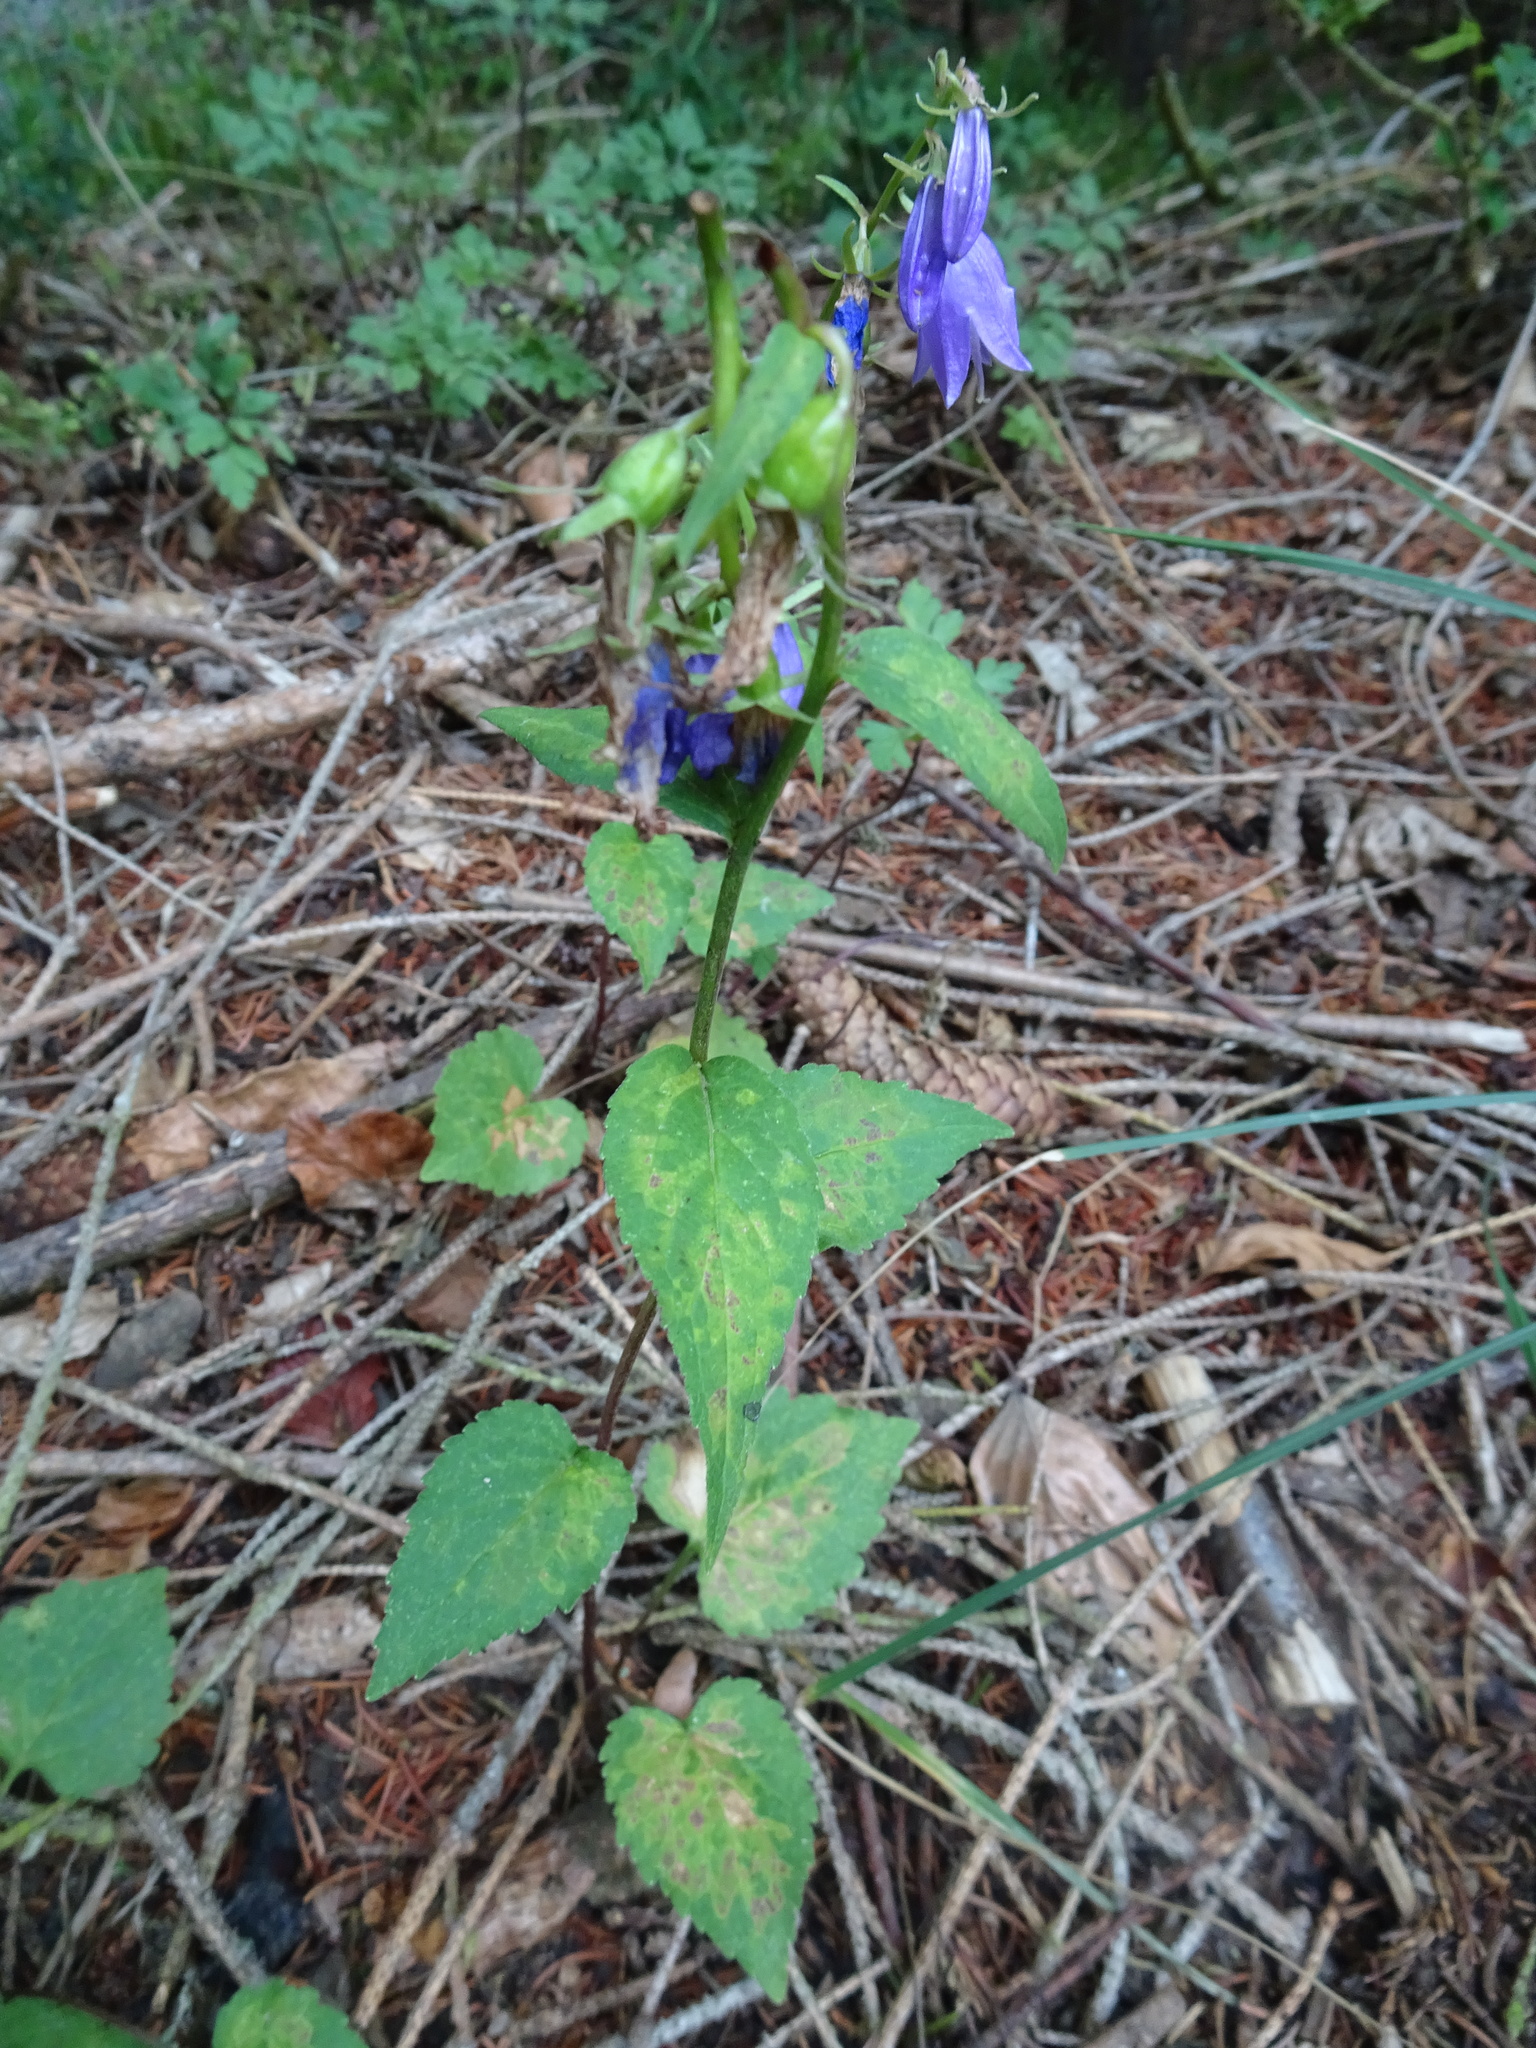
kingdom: Plantae
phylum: Tracheophyta
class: Magnoliopsida
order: Asterales
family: Campanulaceae
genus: Campanula
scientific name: Campanula rapunculoides
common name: Creeping bellflower
